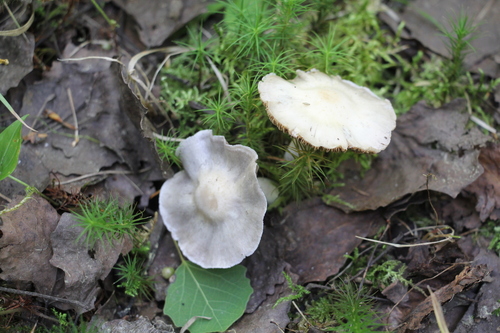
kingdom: Fungi
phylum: Basidiomycota
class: Agaricomycetes
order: Agaricales
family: Cortinariaceae
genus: Cortinarius
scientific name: Cortinarius alboviolaceus
